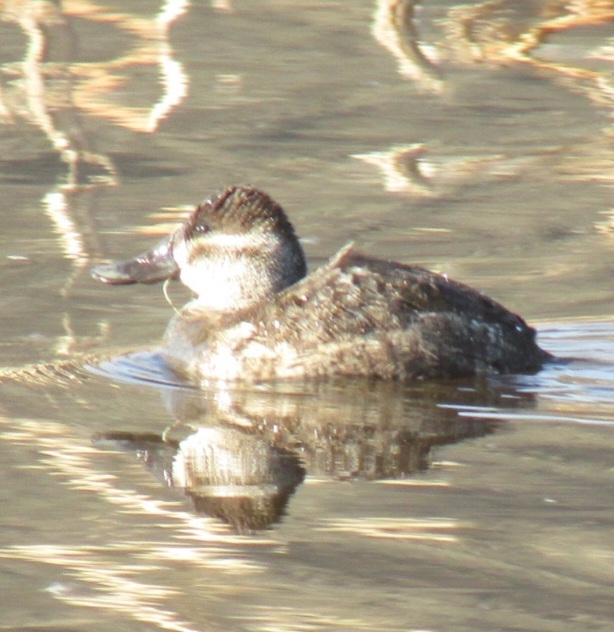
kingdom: Animalia
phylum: Chordata
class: Aves
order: Anseriformes
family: Anatidae
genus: Oxyura
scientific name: Oxyura jamaicensis
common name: Ruddy duck
